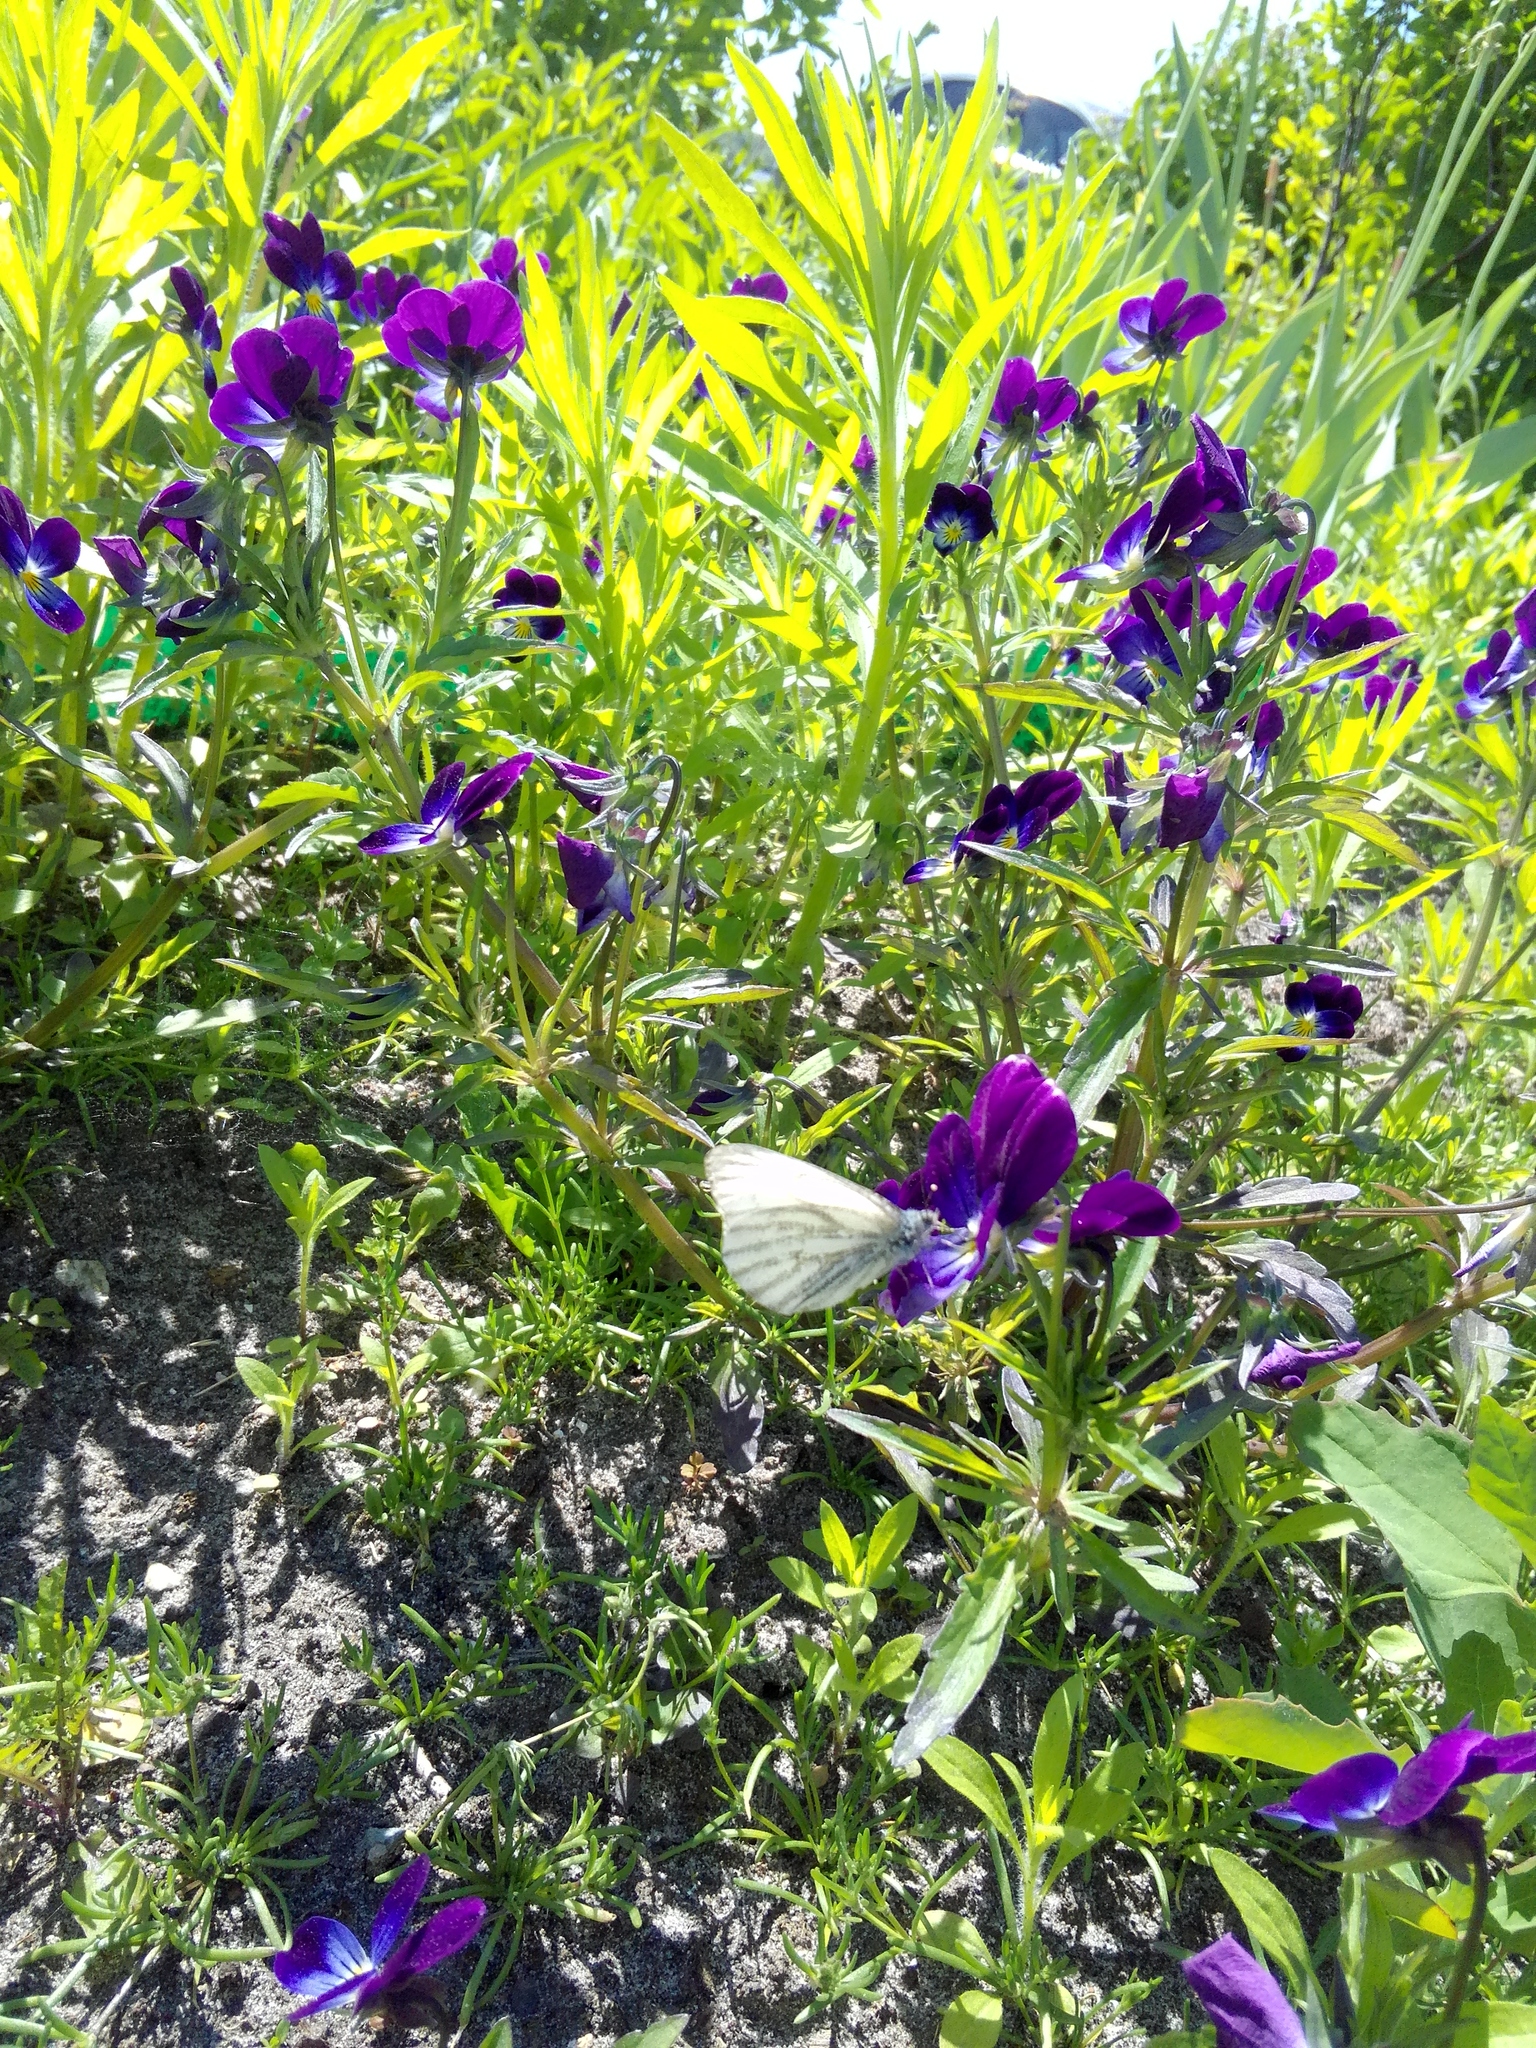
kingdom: Animalia
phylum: Arthropoda
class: Insecta
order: Lepidoptera
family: Pieridae
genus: Pieris
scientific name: Pieris napi
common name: Green-veined white
